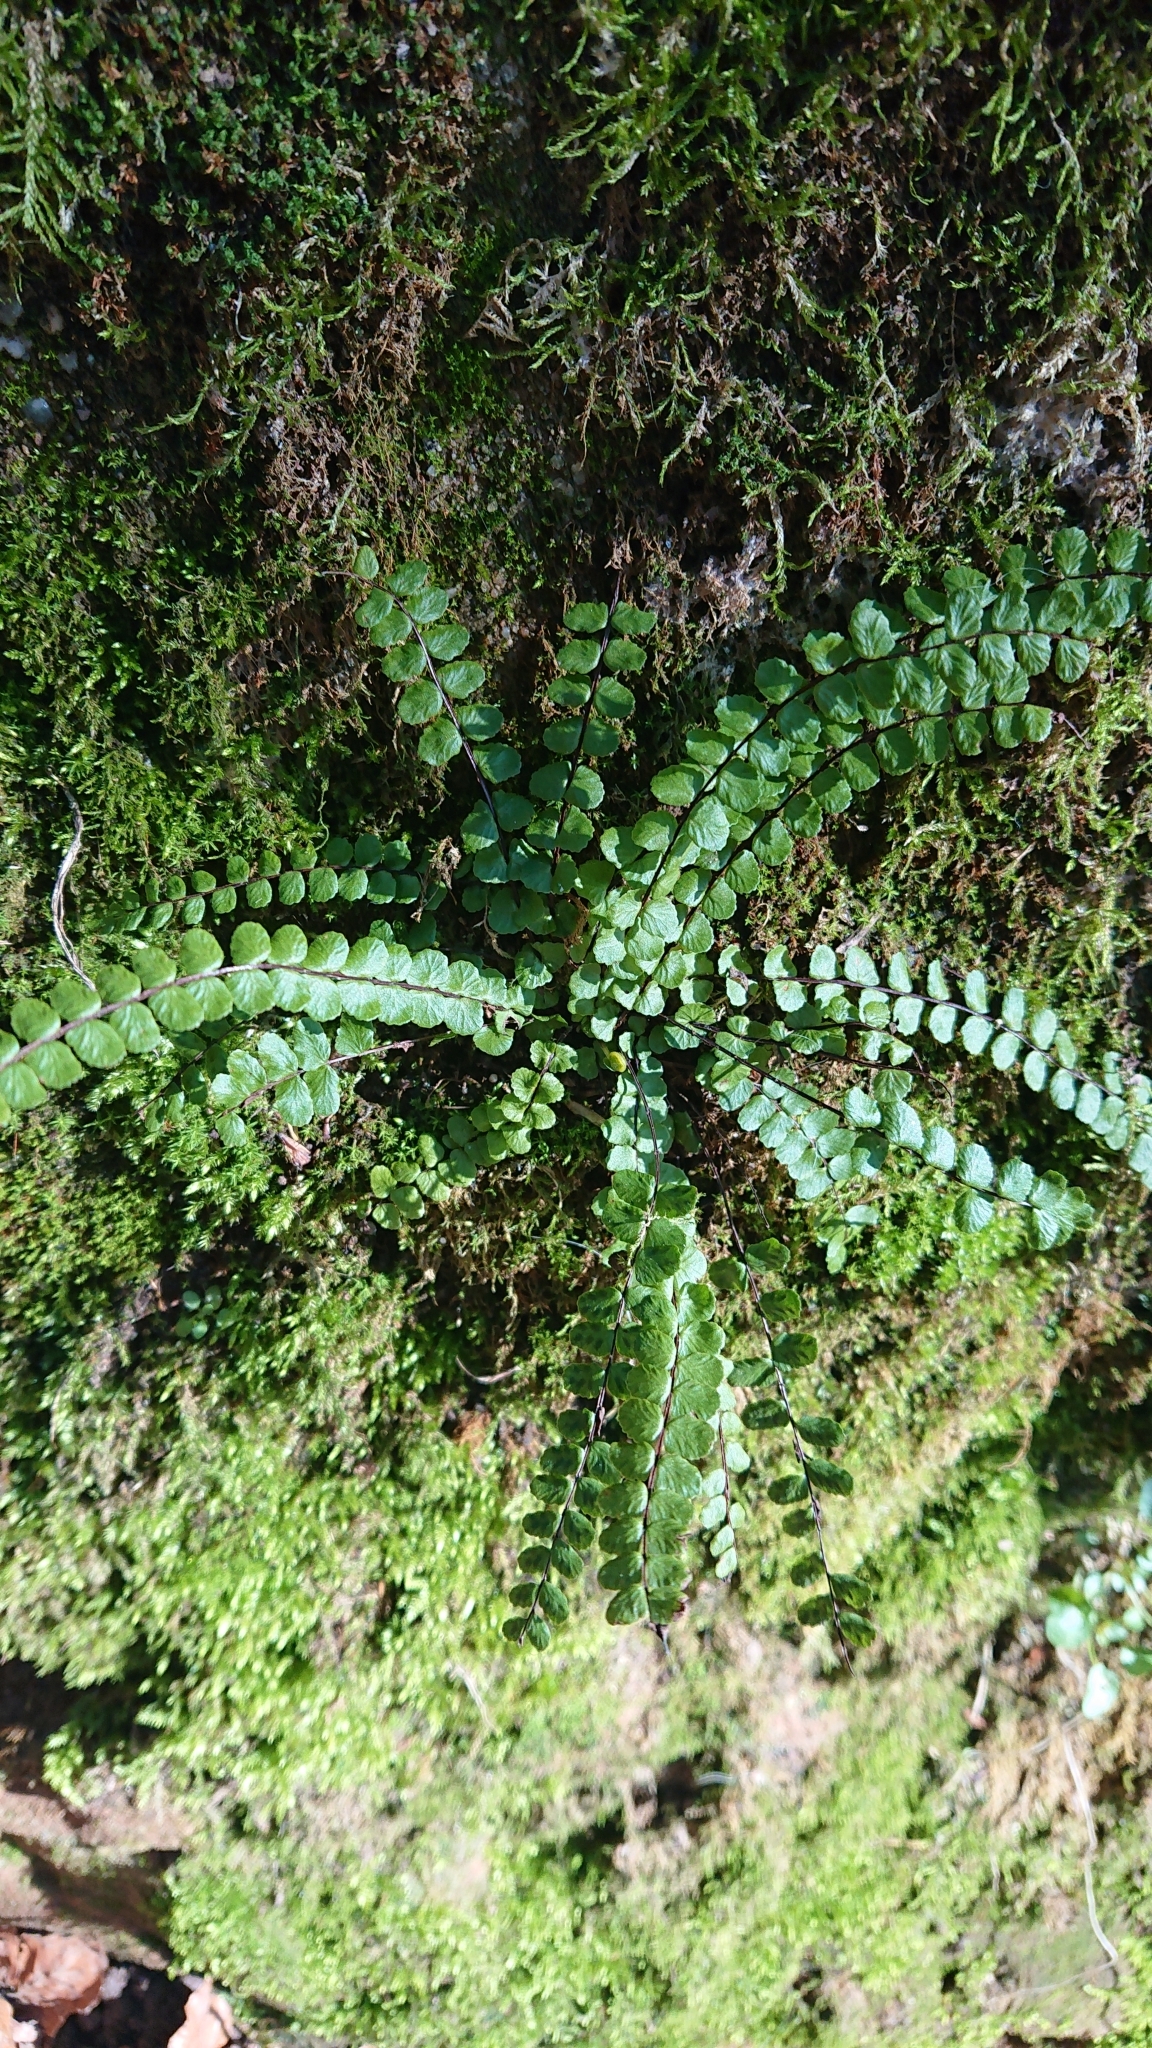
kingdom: Plantae
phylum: Tracheophyta
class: Polypodiopsida
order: Polypodiales
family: Aspleniaceae
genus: Asplenium
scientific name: Asplenium trichomanes
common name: Maidenhair spleenwort
